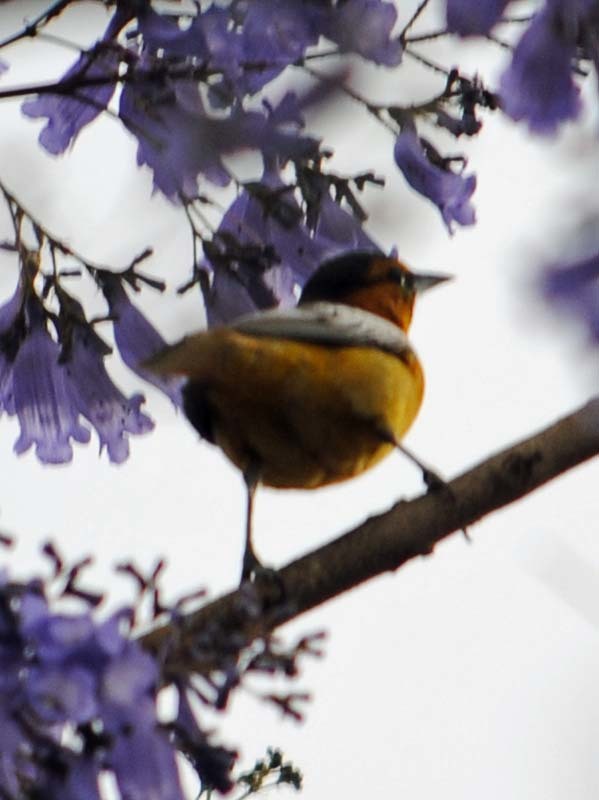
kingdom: Animalia
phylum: Chordata
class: Aves
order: Passeriformes
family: Icteridae
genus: Icterus
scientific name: Icterus bullockii
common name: Bullock's oriole
